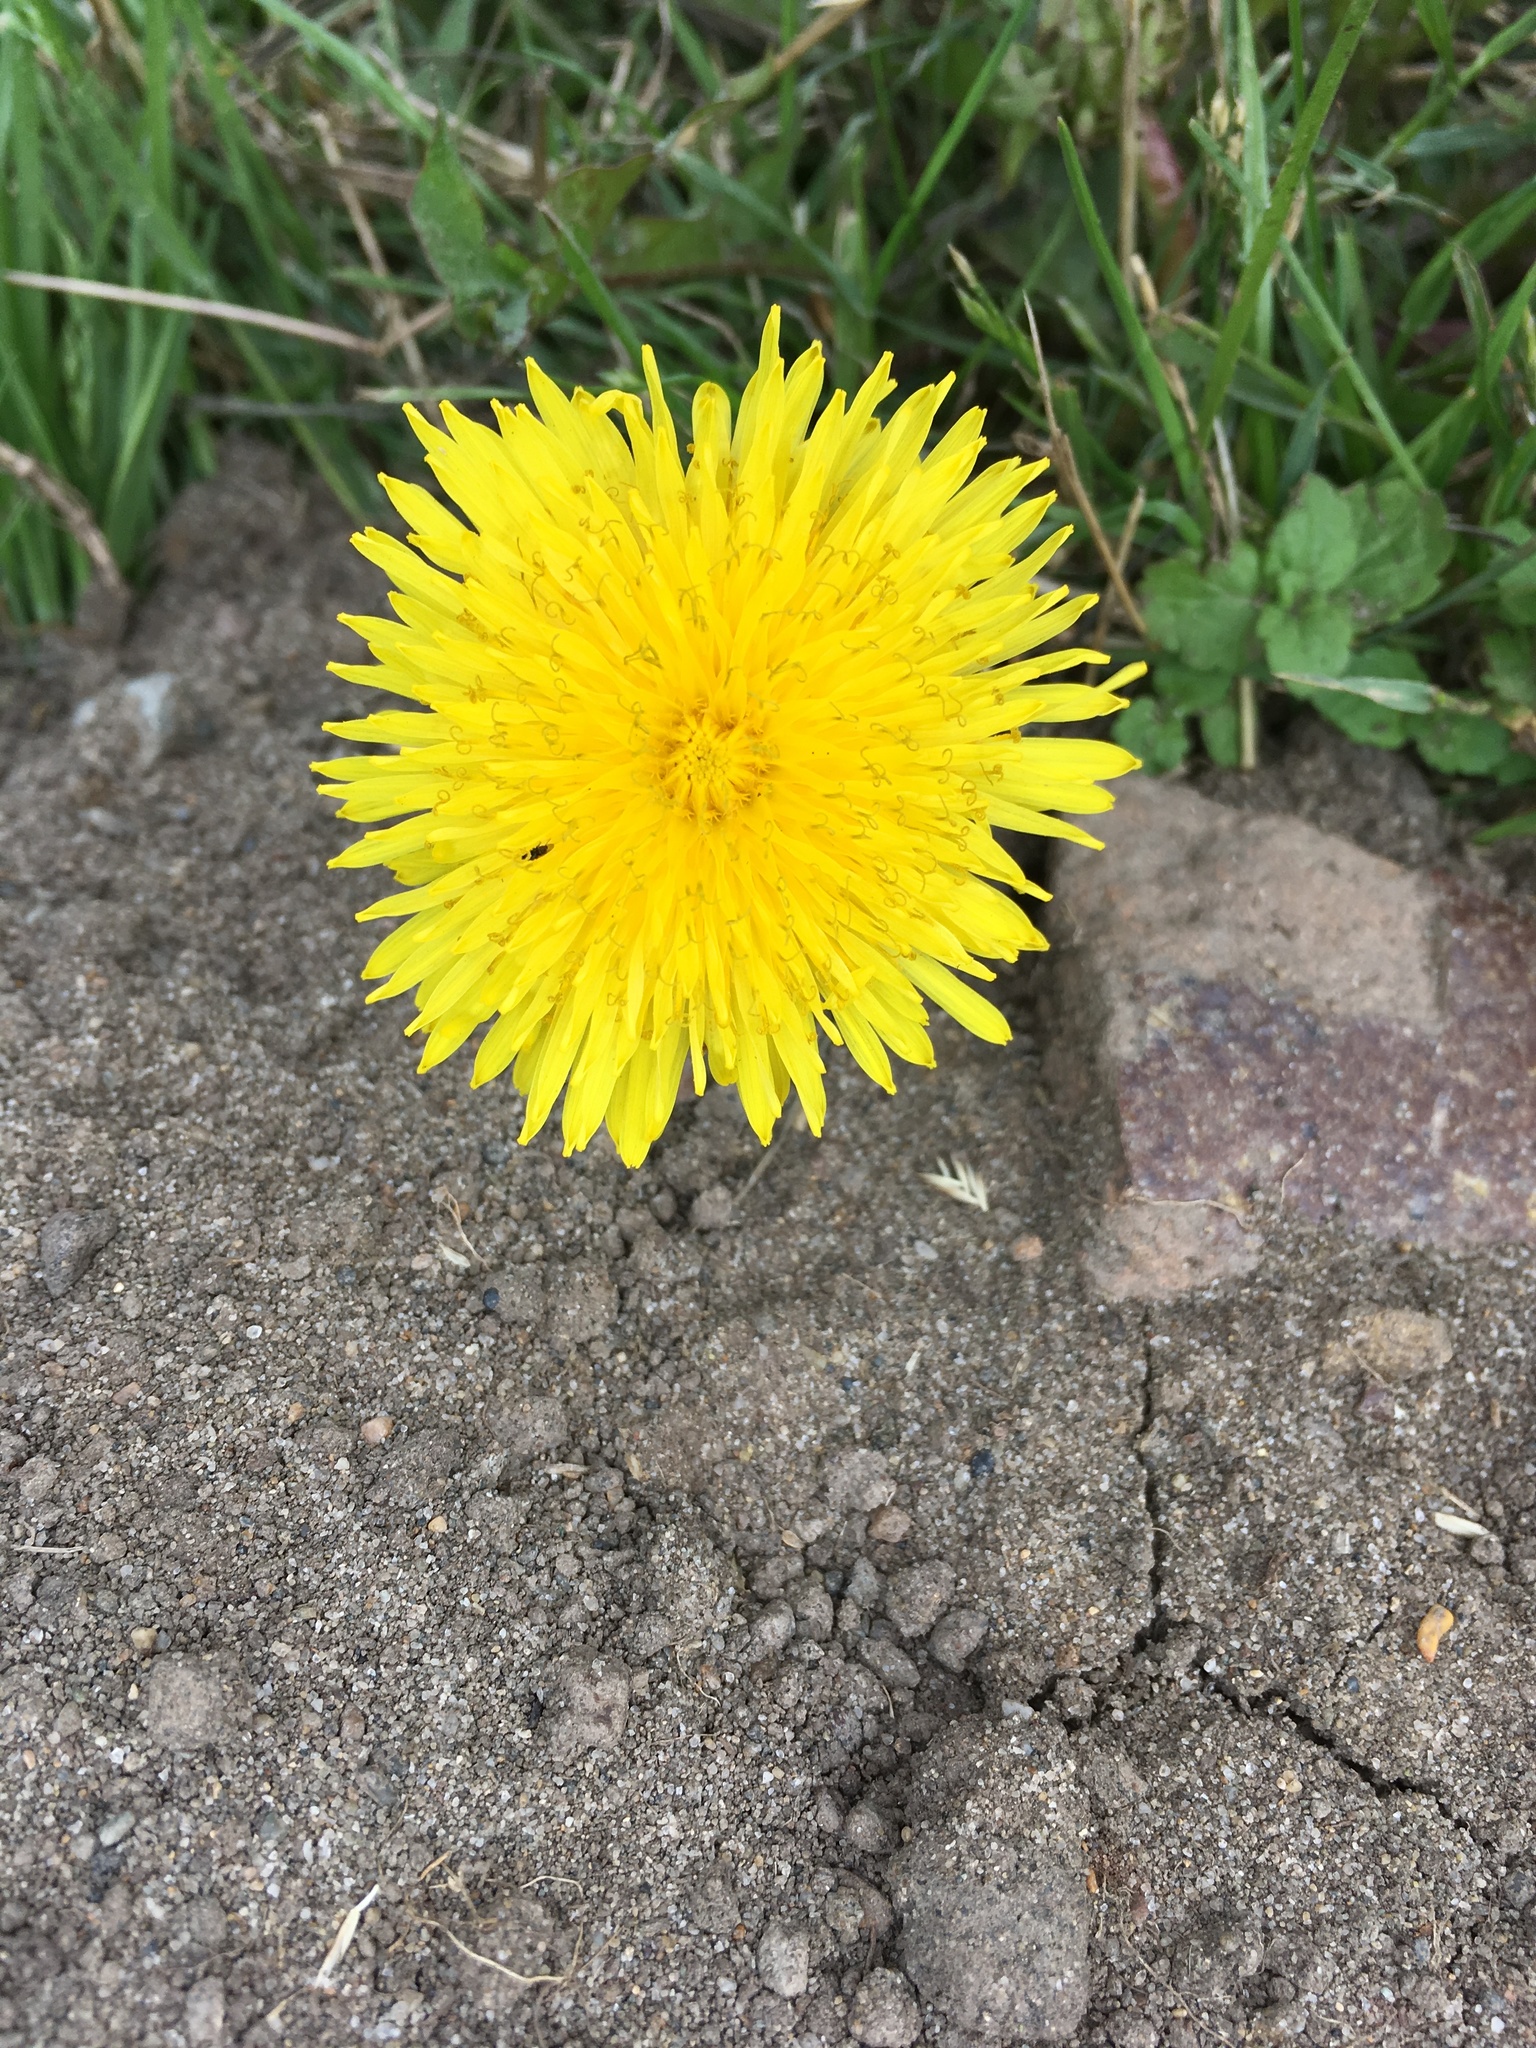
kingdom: Plantae
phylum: Tracheophyta
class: Magnoliopsida
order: Asterales
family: Asteraceae
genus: Taraxacum
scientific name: Taraxacum officinale
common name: Common dandelion
